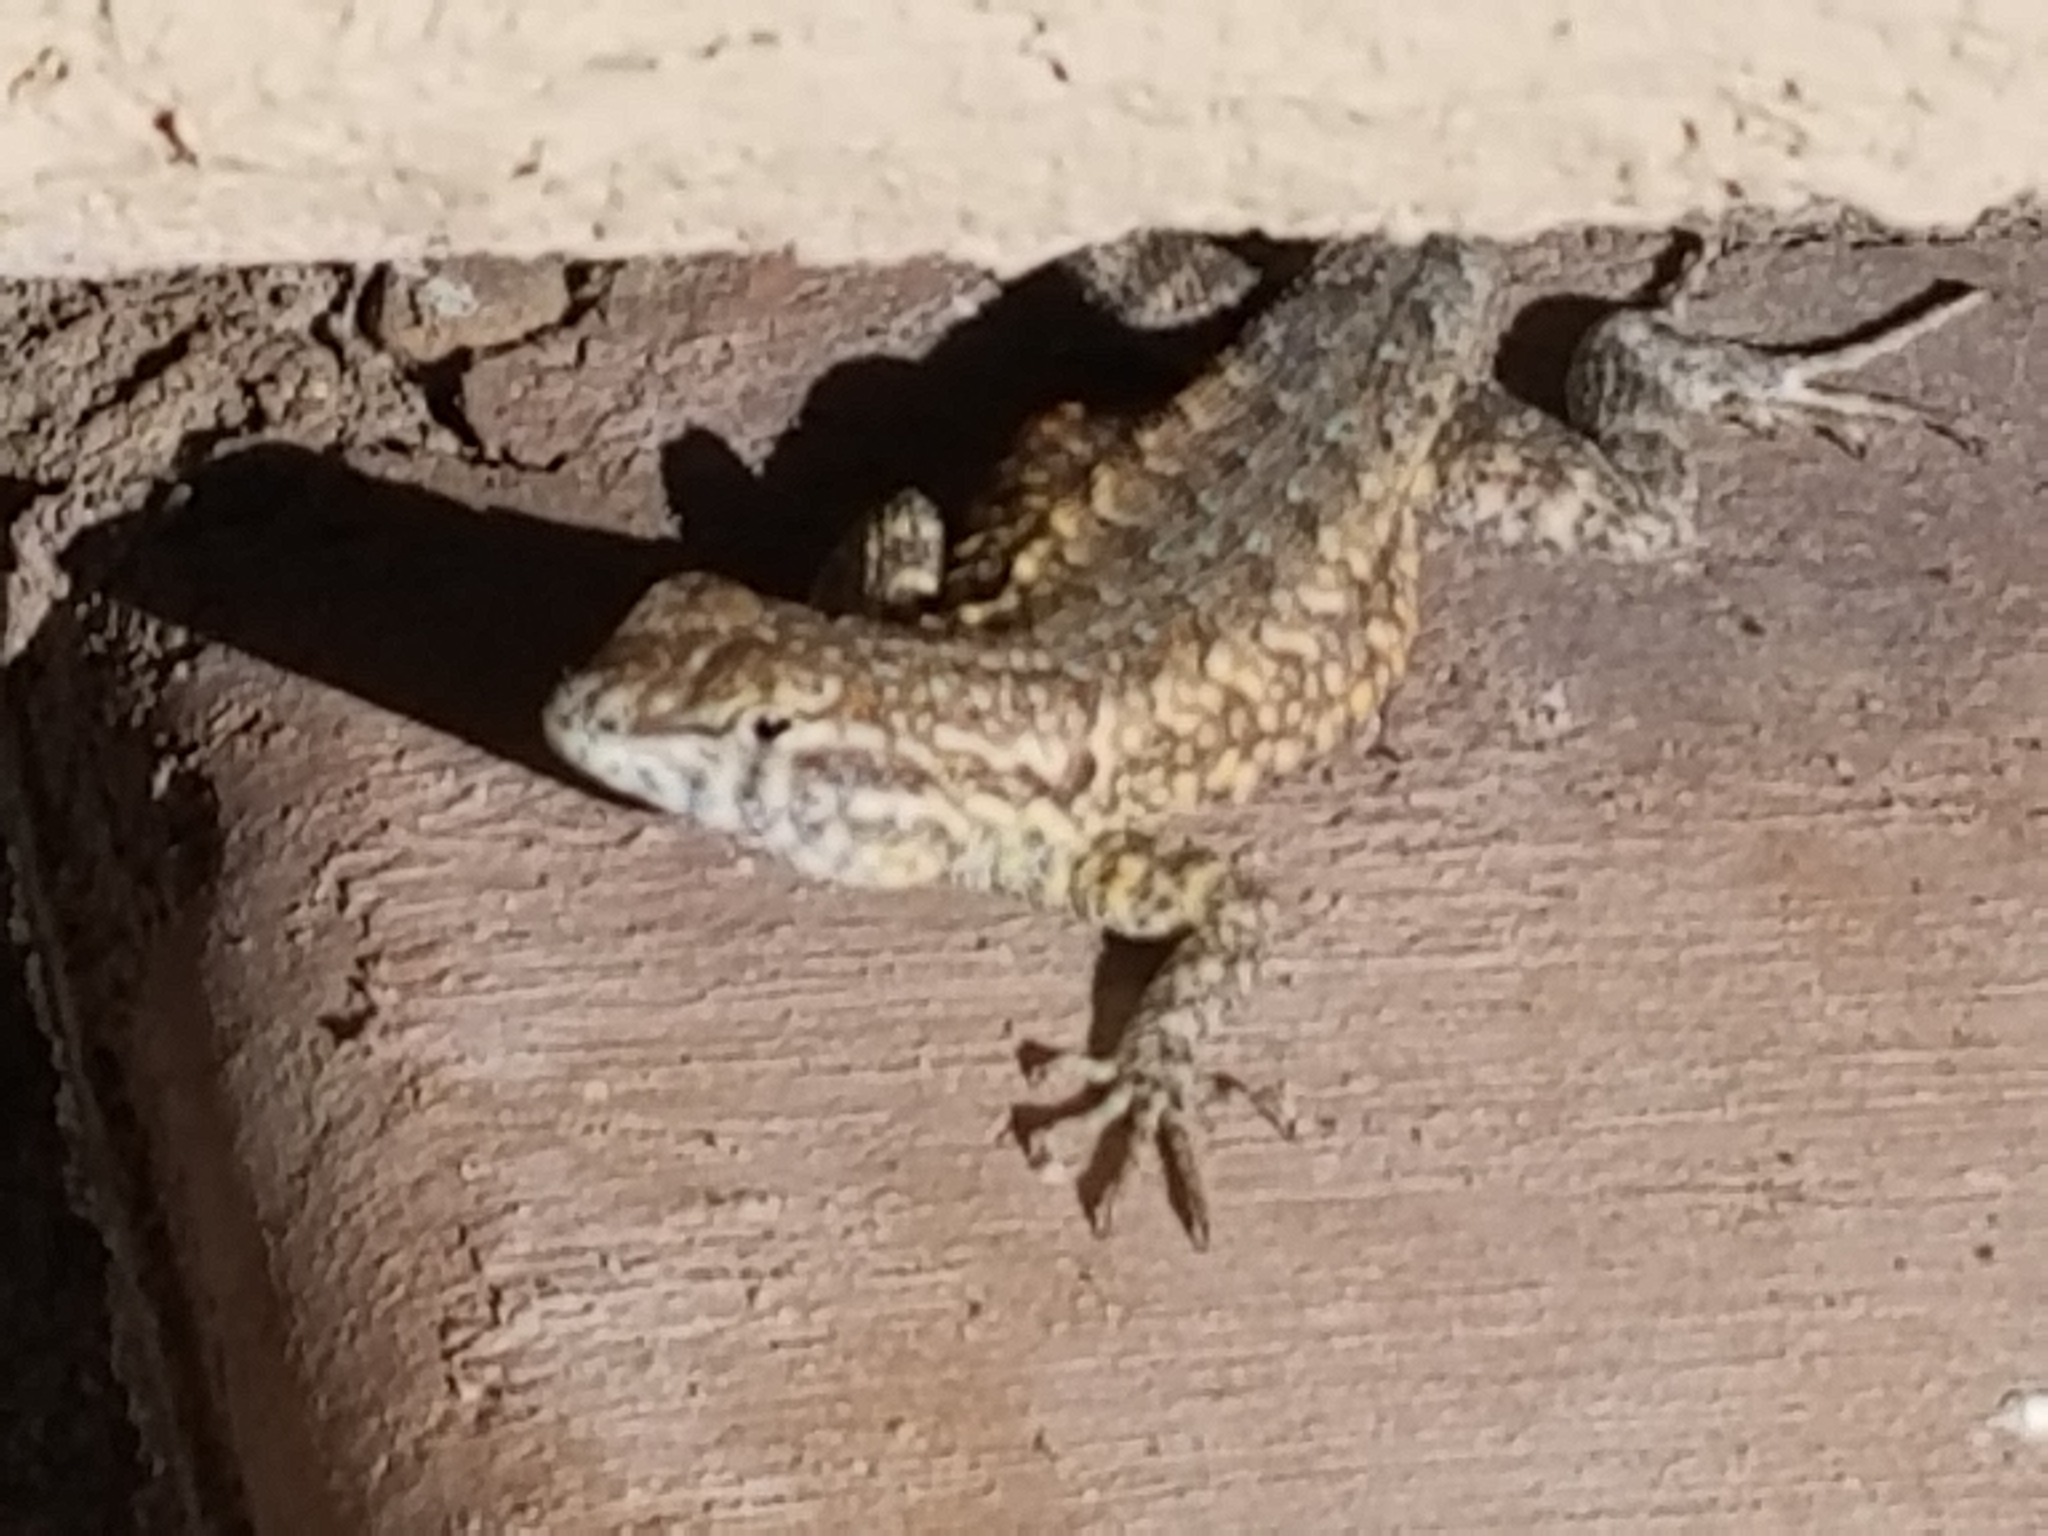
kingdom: Animalia
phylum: Chordata
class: Squamata
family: Phrynosomatidae
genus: Uta
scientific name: Uta stansburiana
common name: Side-blotched lizard
